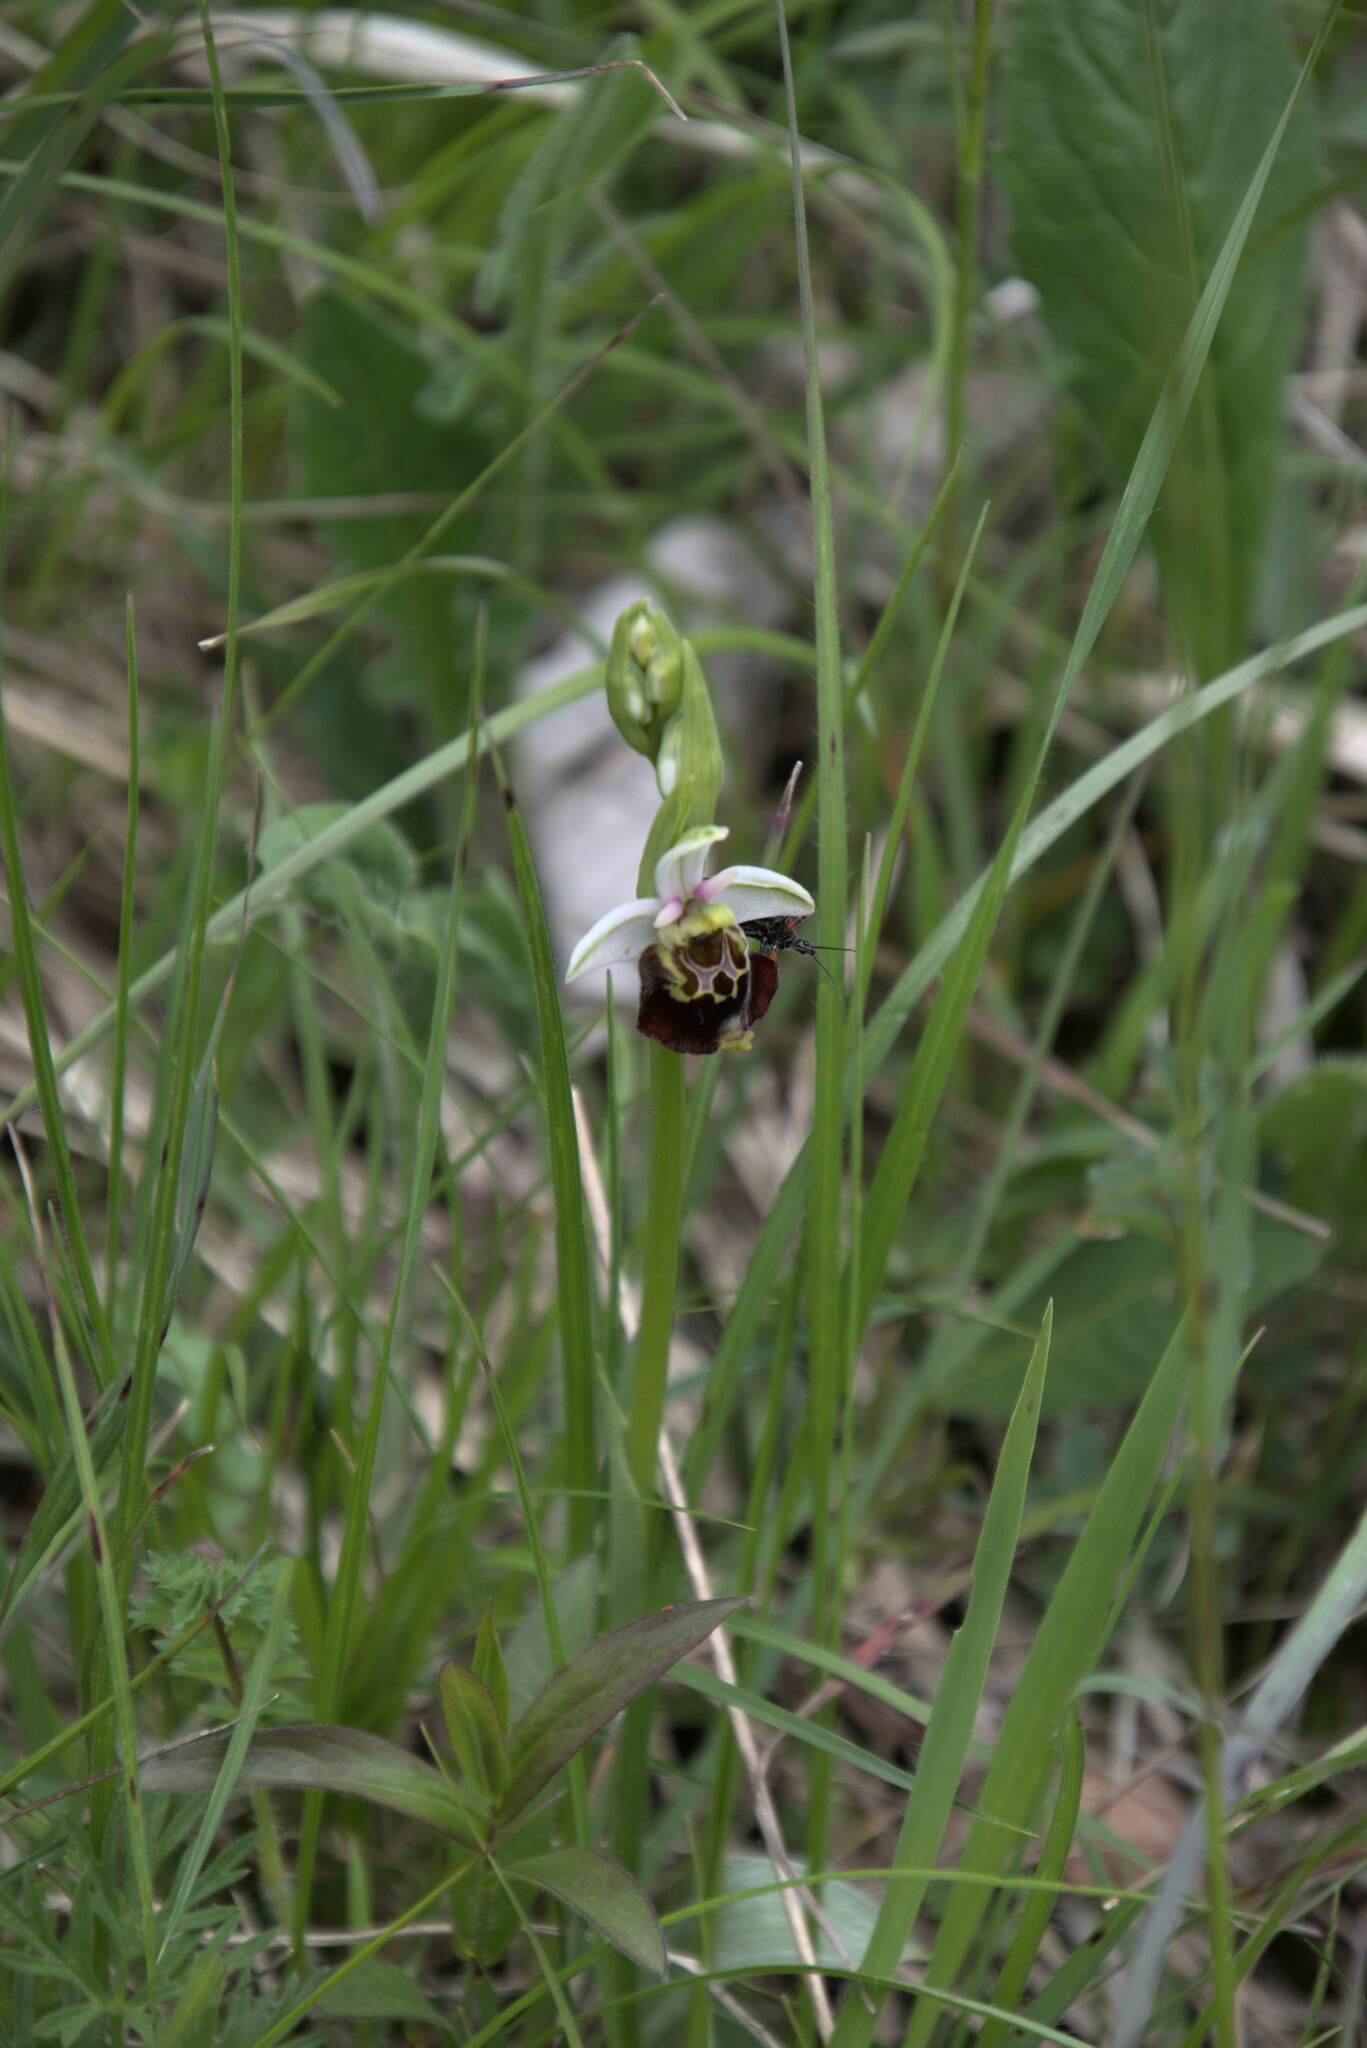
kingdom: Plantae
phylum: Tracheophyta
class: Liliopsida
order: Asparagales
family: Orchidaceae
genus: Ophrys
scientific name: Ophrys holosericea
